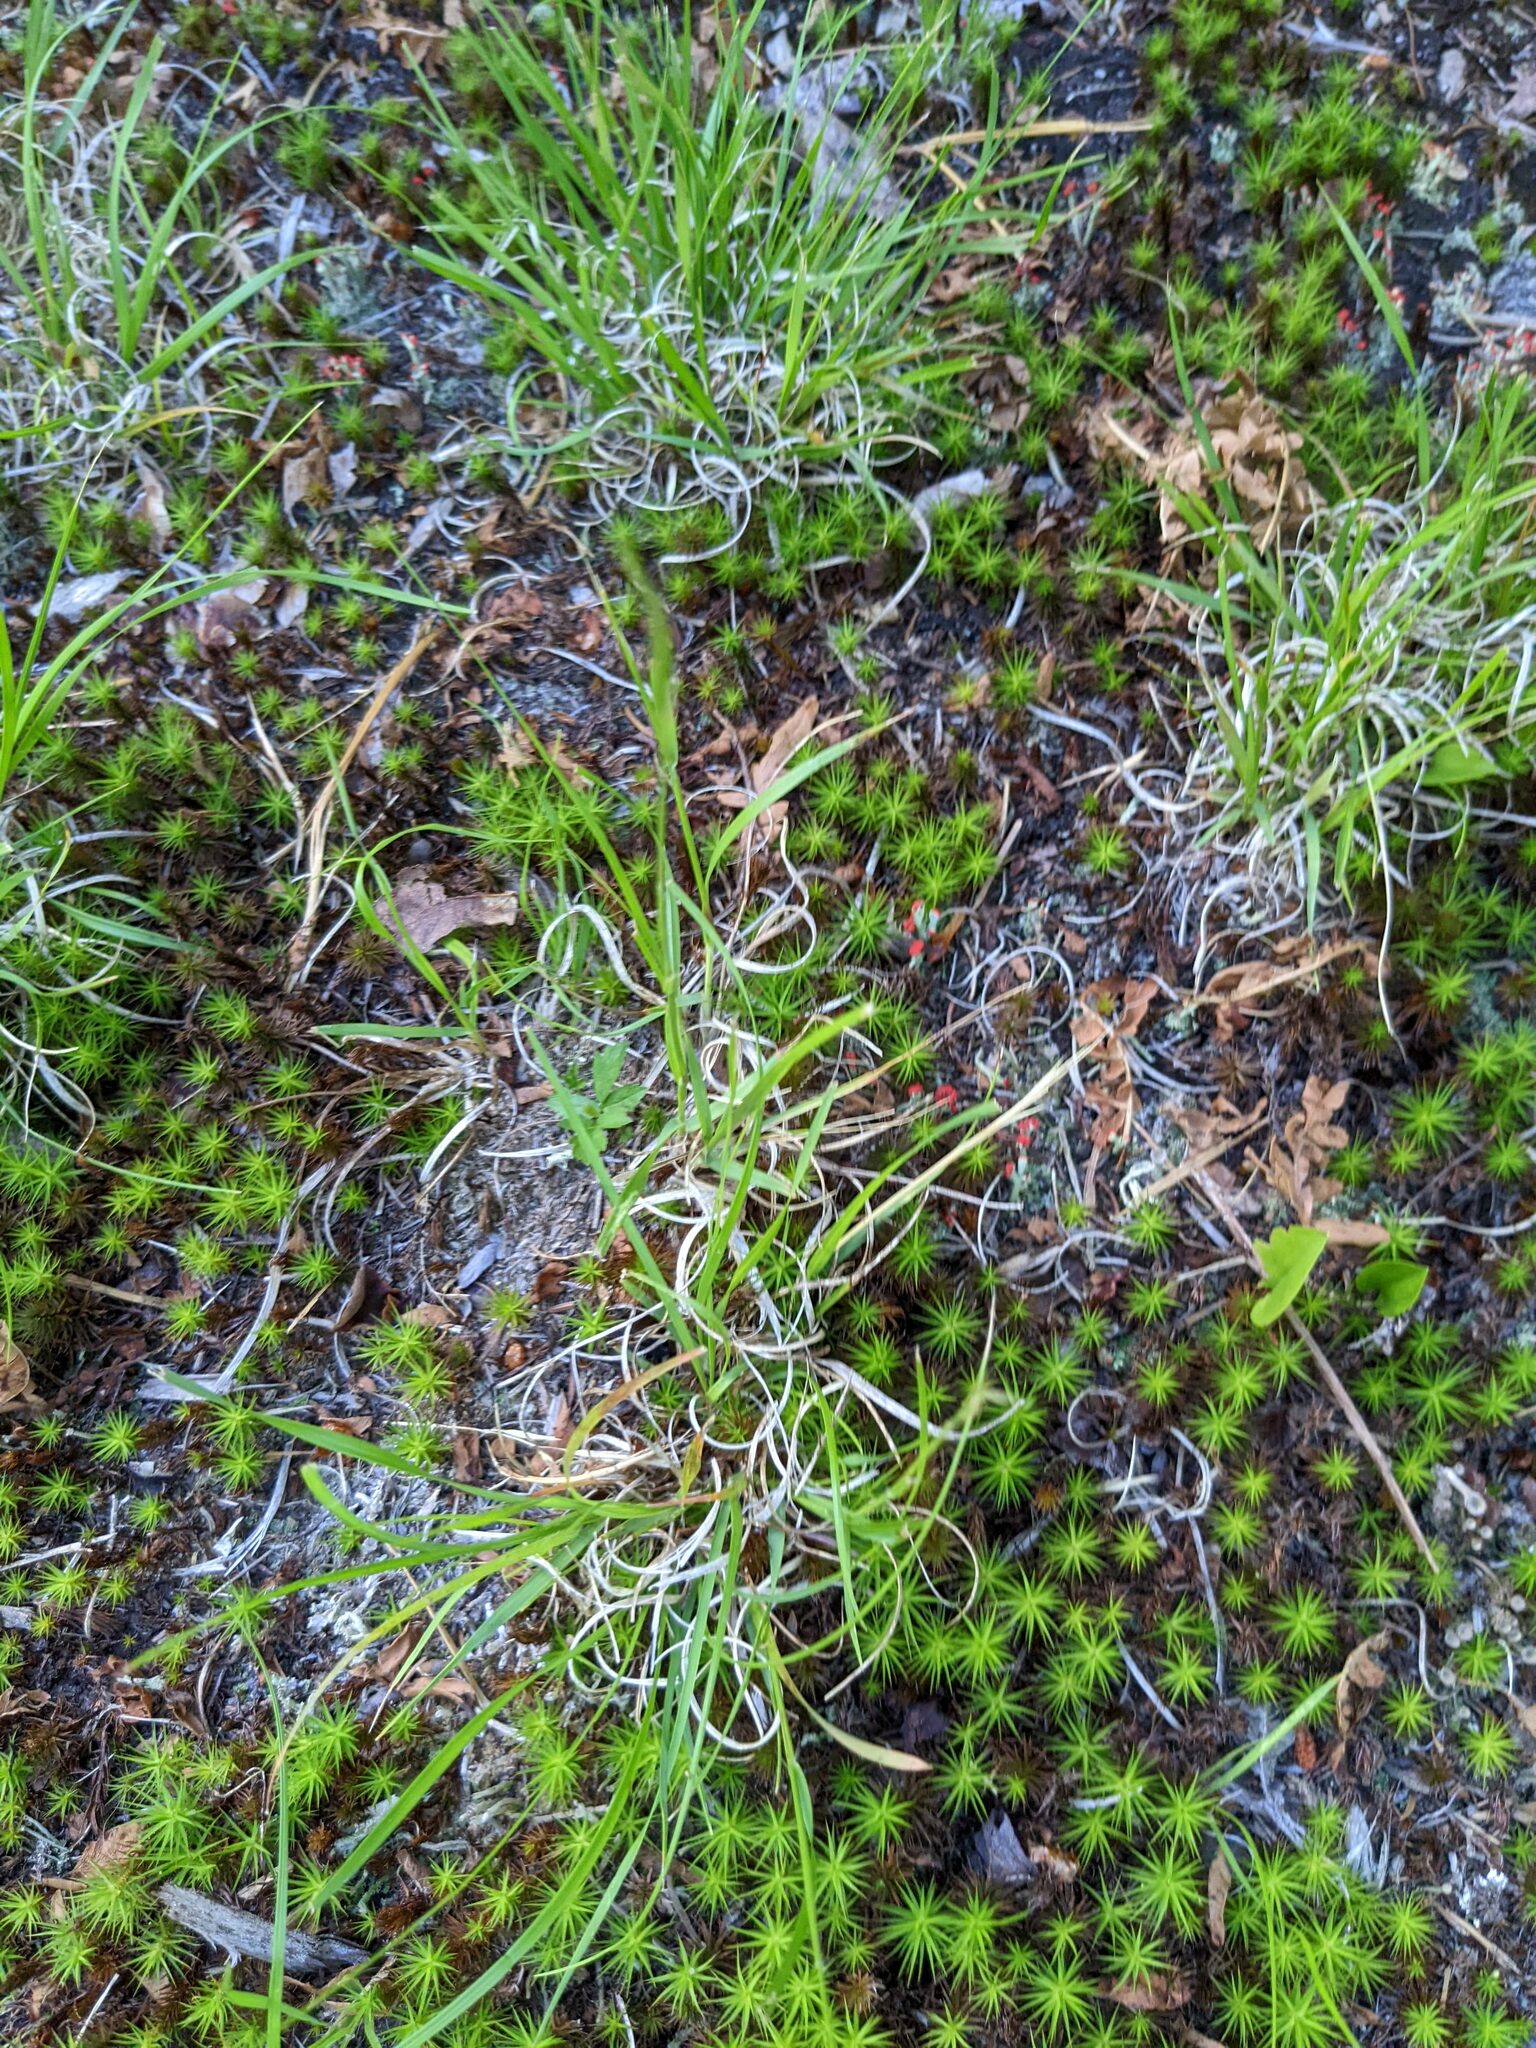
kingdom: Plantae
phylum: Tracheophyta
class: Liliopsida
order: Poales
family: Poaceae
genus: Danthonia
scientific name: Danthonia spicata
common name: Common wild oatgrass
